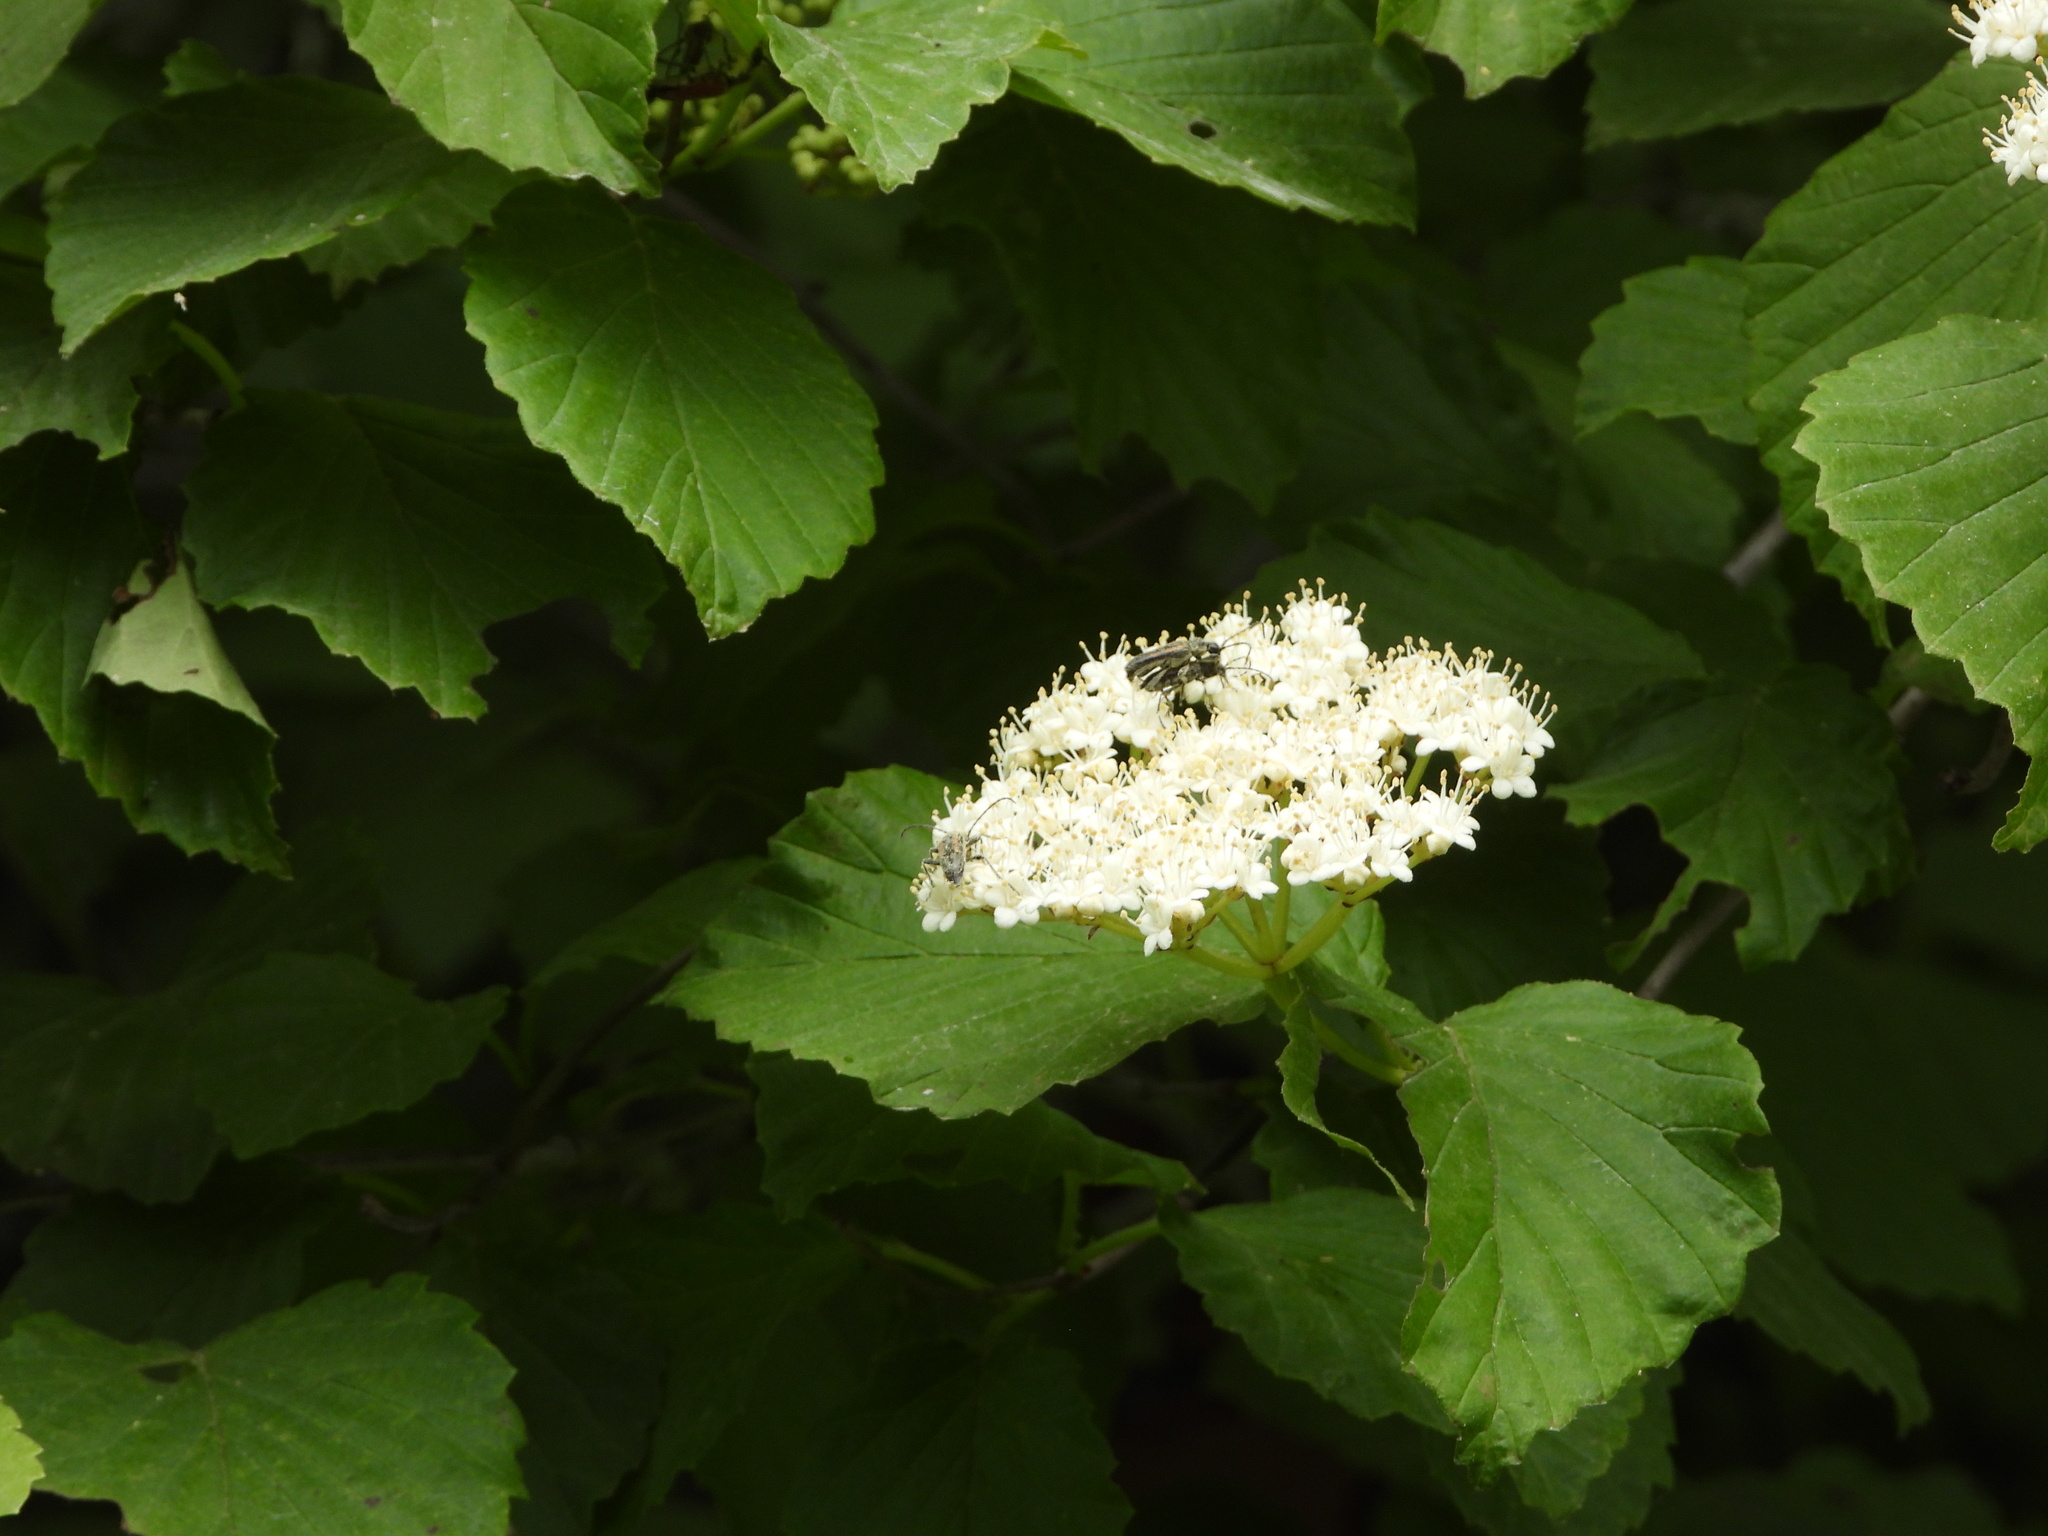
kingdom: Animalia
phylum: Arthropoda
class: Insecta
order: Coleoptera
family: Cerambycidae
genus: Strangalepta
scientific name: Strangalepta abbreviata
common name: Strangalepta flower longhorn beetle
